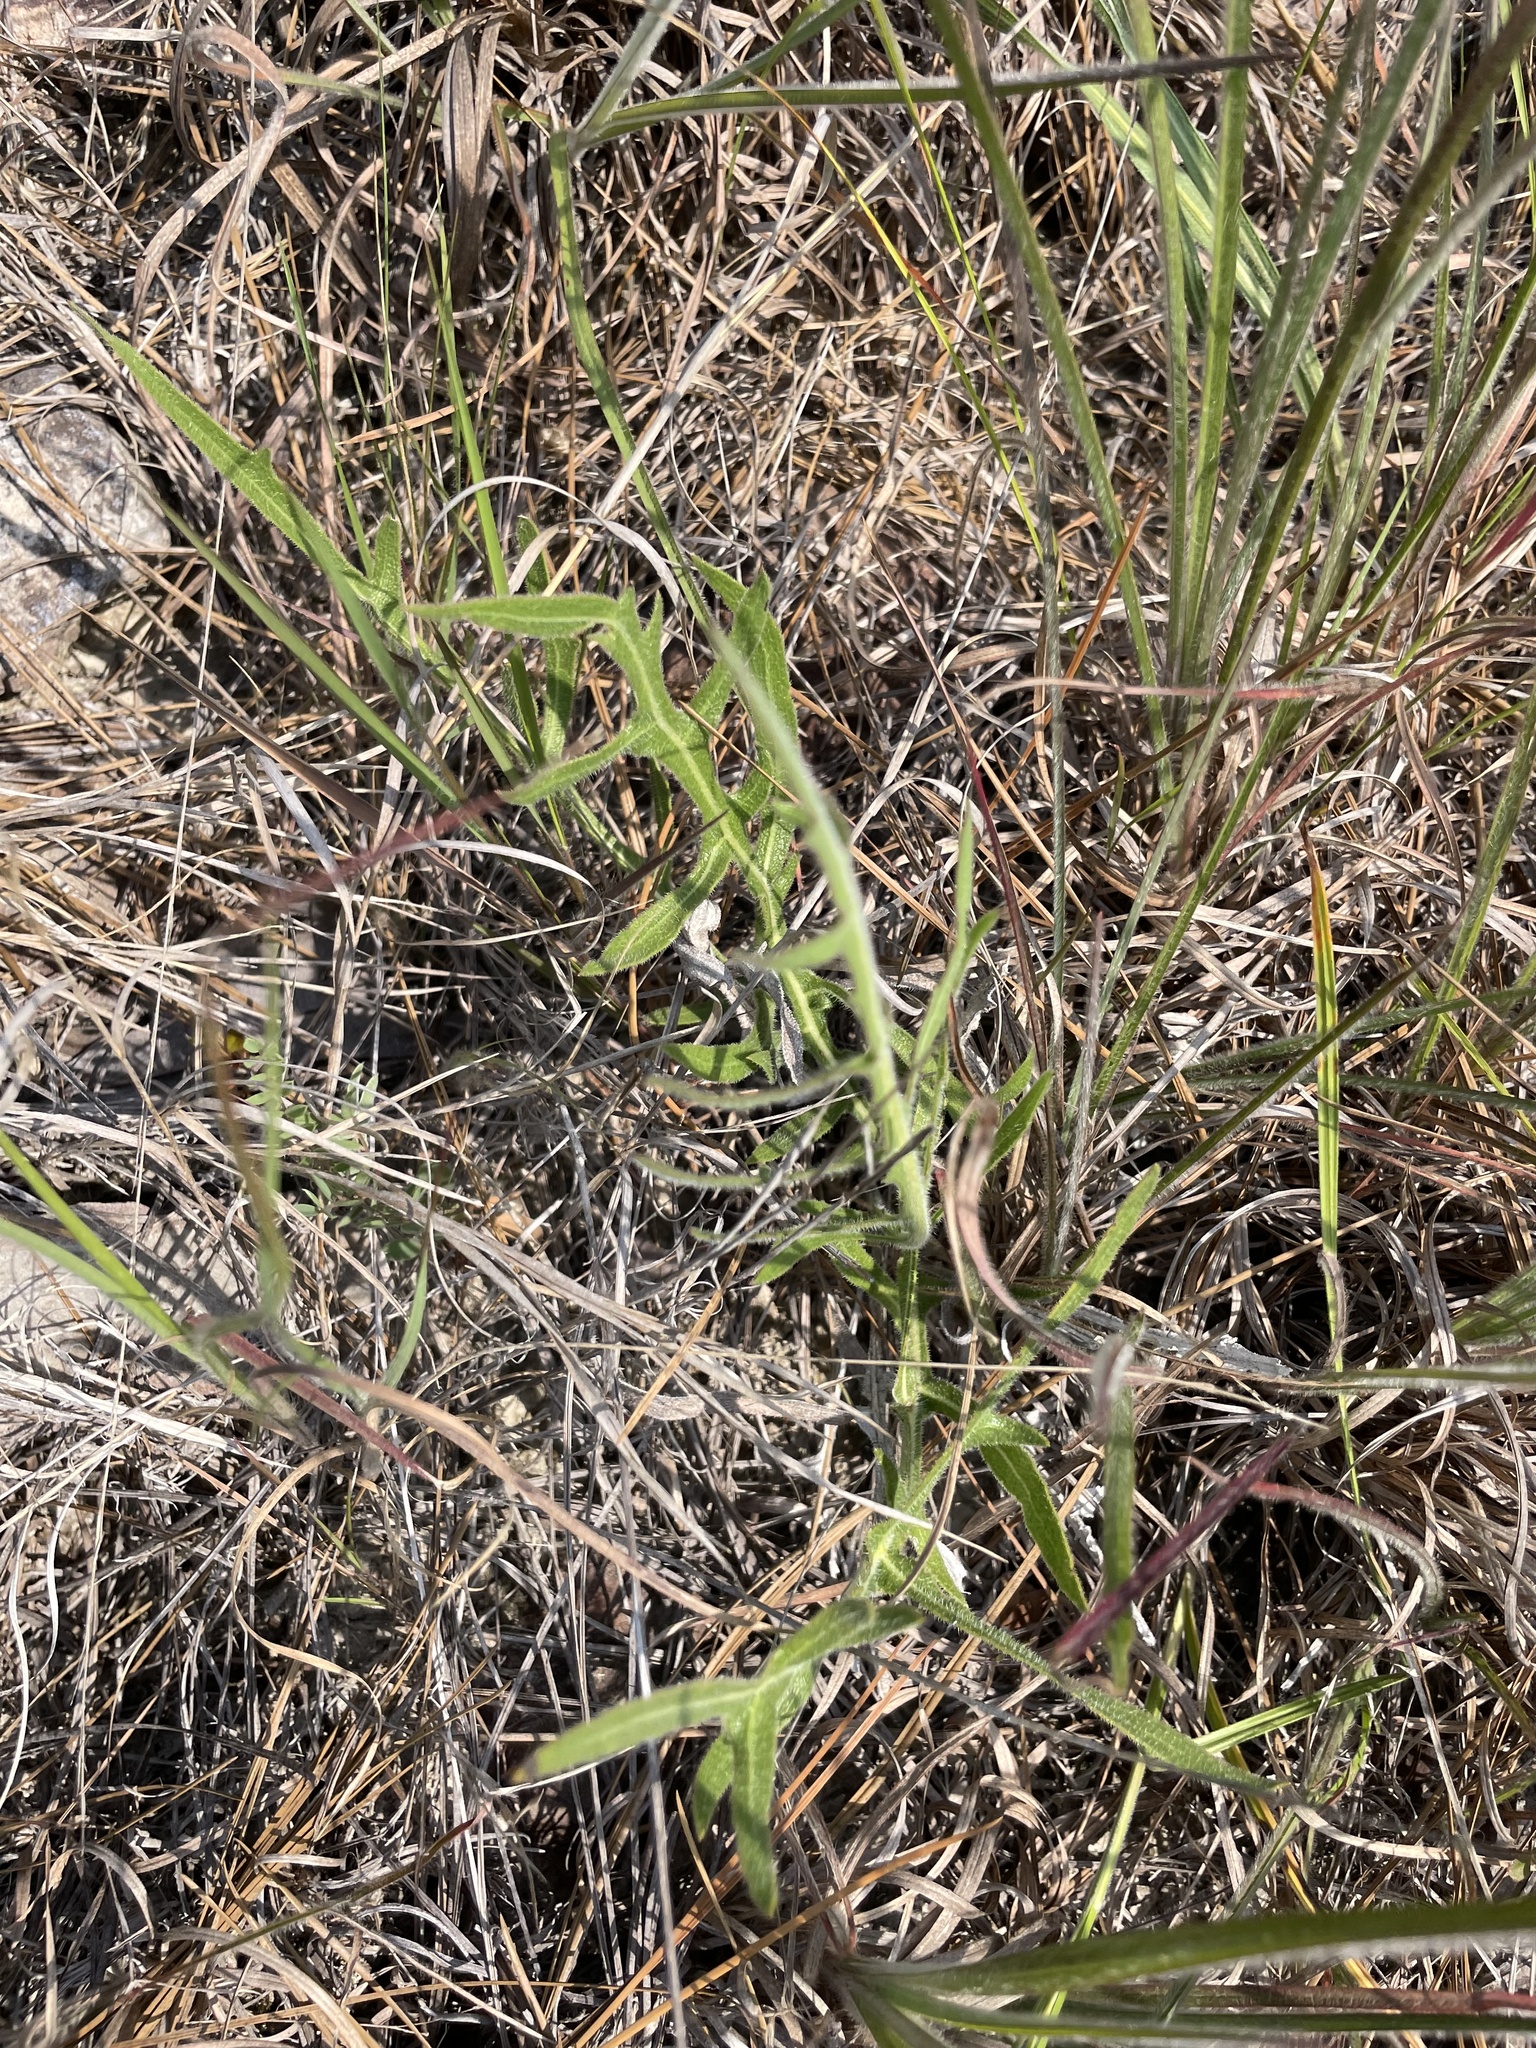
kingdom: Plantae
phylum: Tracheophyta
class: Magnoliopsida
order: Asterales
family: Asteraceae
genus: Silphium
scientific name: Silphium laciniatum
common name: Polarplant
